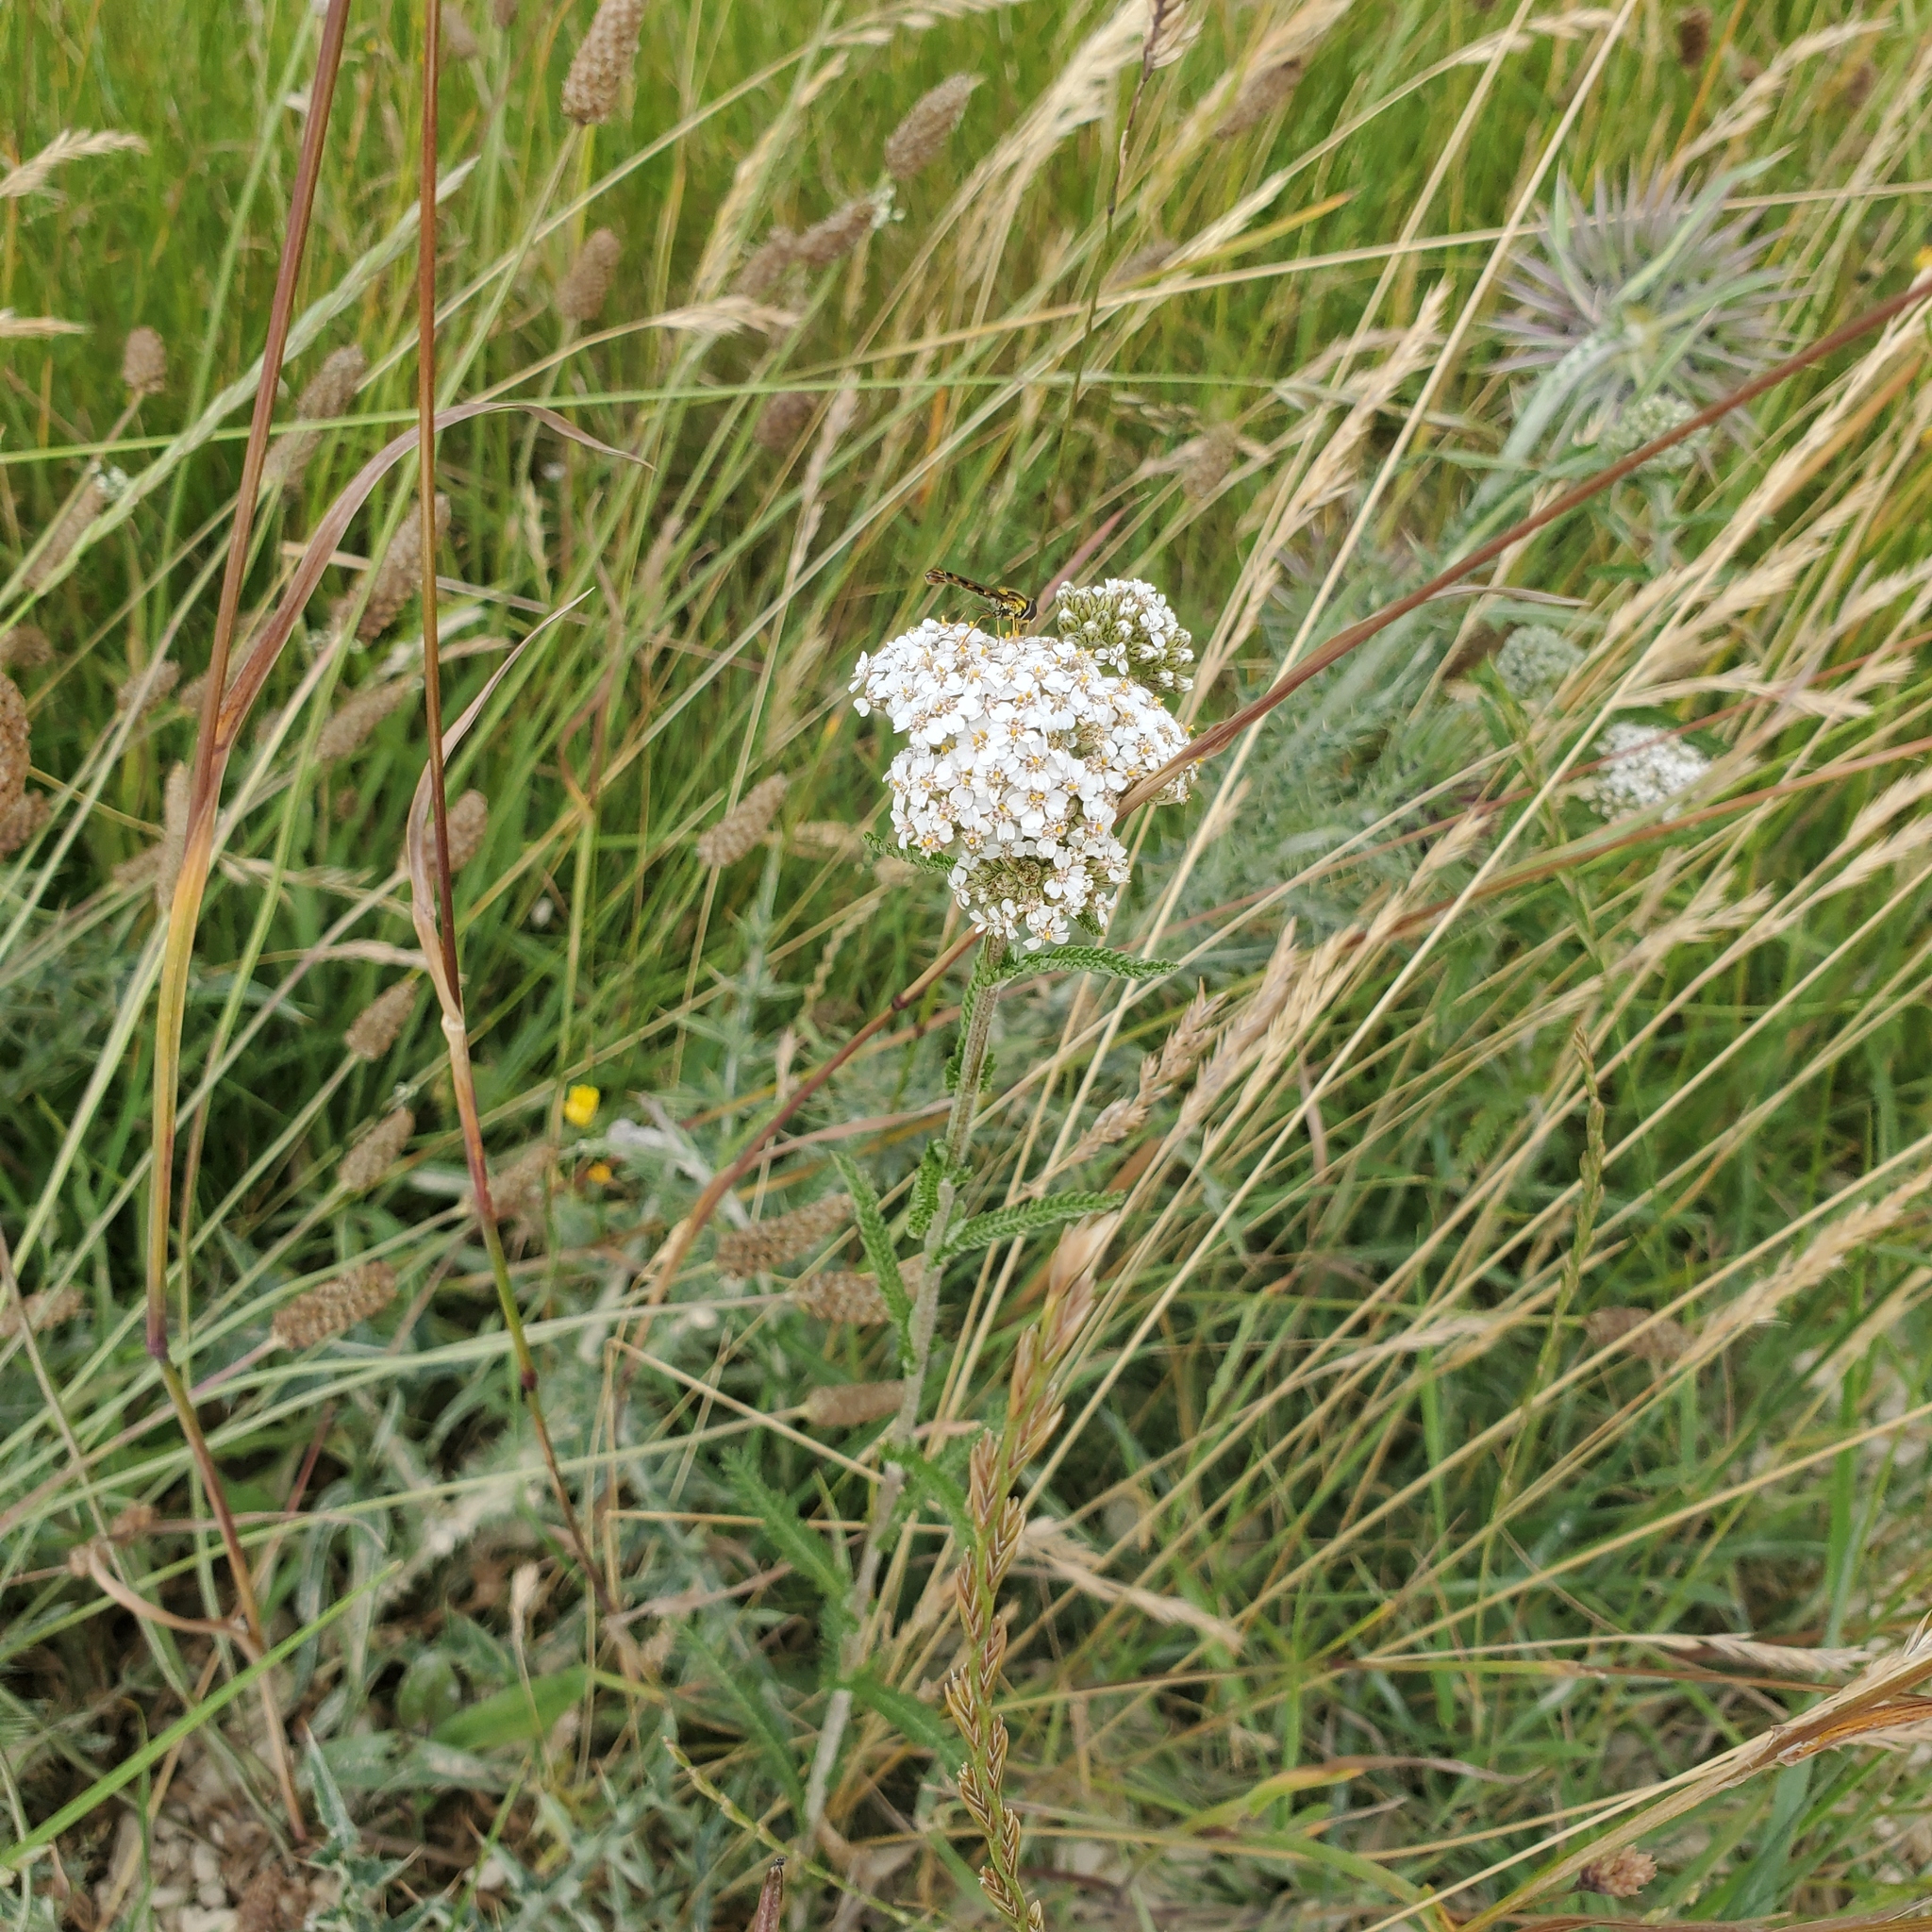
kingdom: Plantae
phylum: Tracheophyta
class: Magnoliopsida
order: Asterales
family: Asteraceae
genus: Achillea
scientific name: Achillea millefolium
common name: Yarrow
